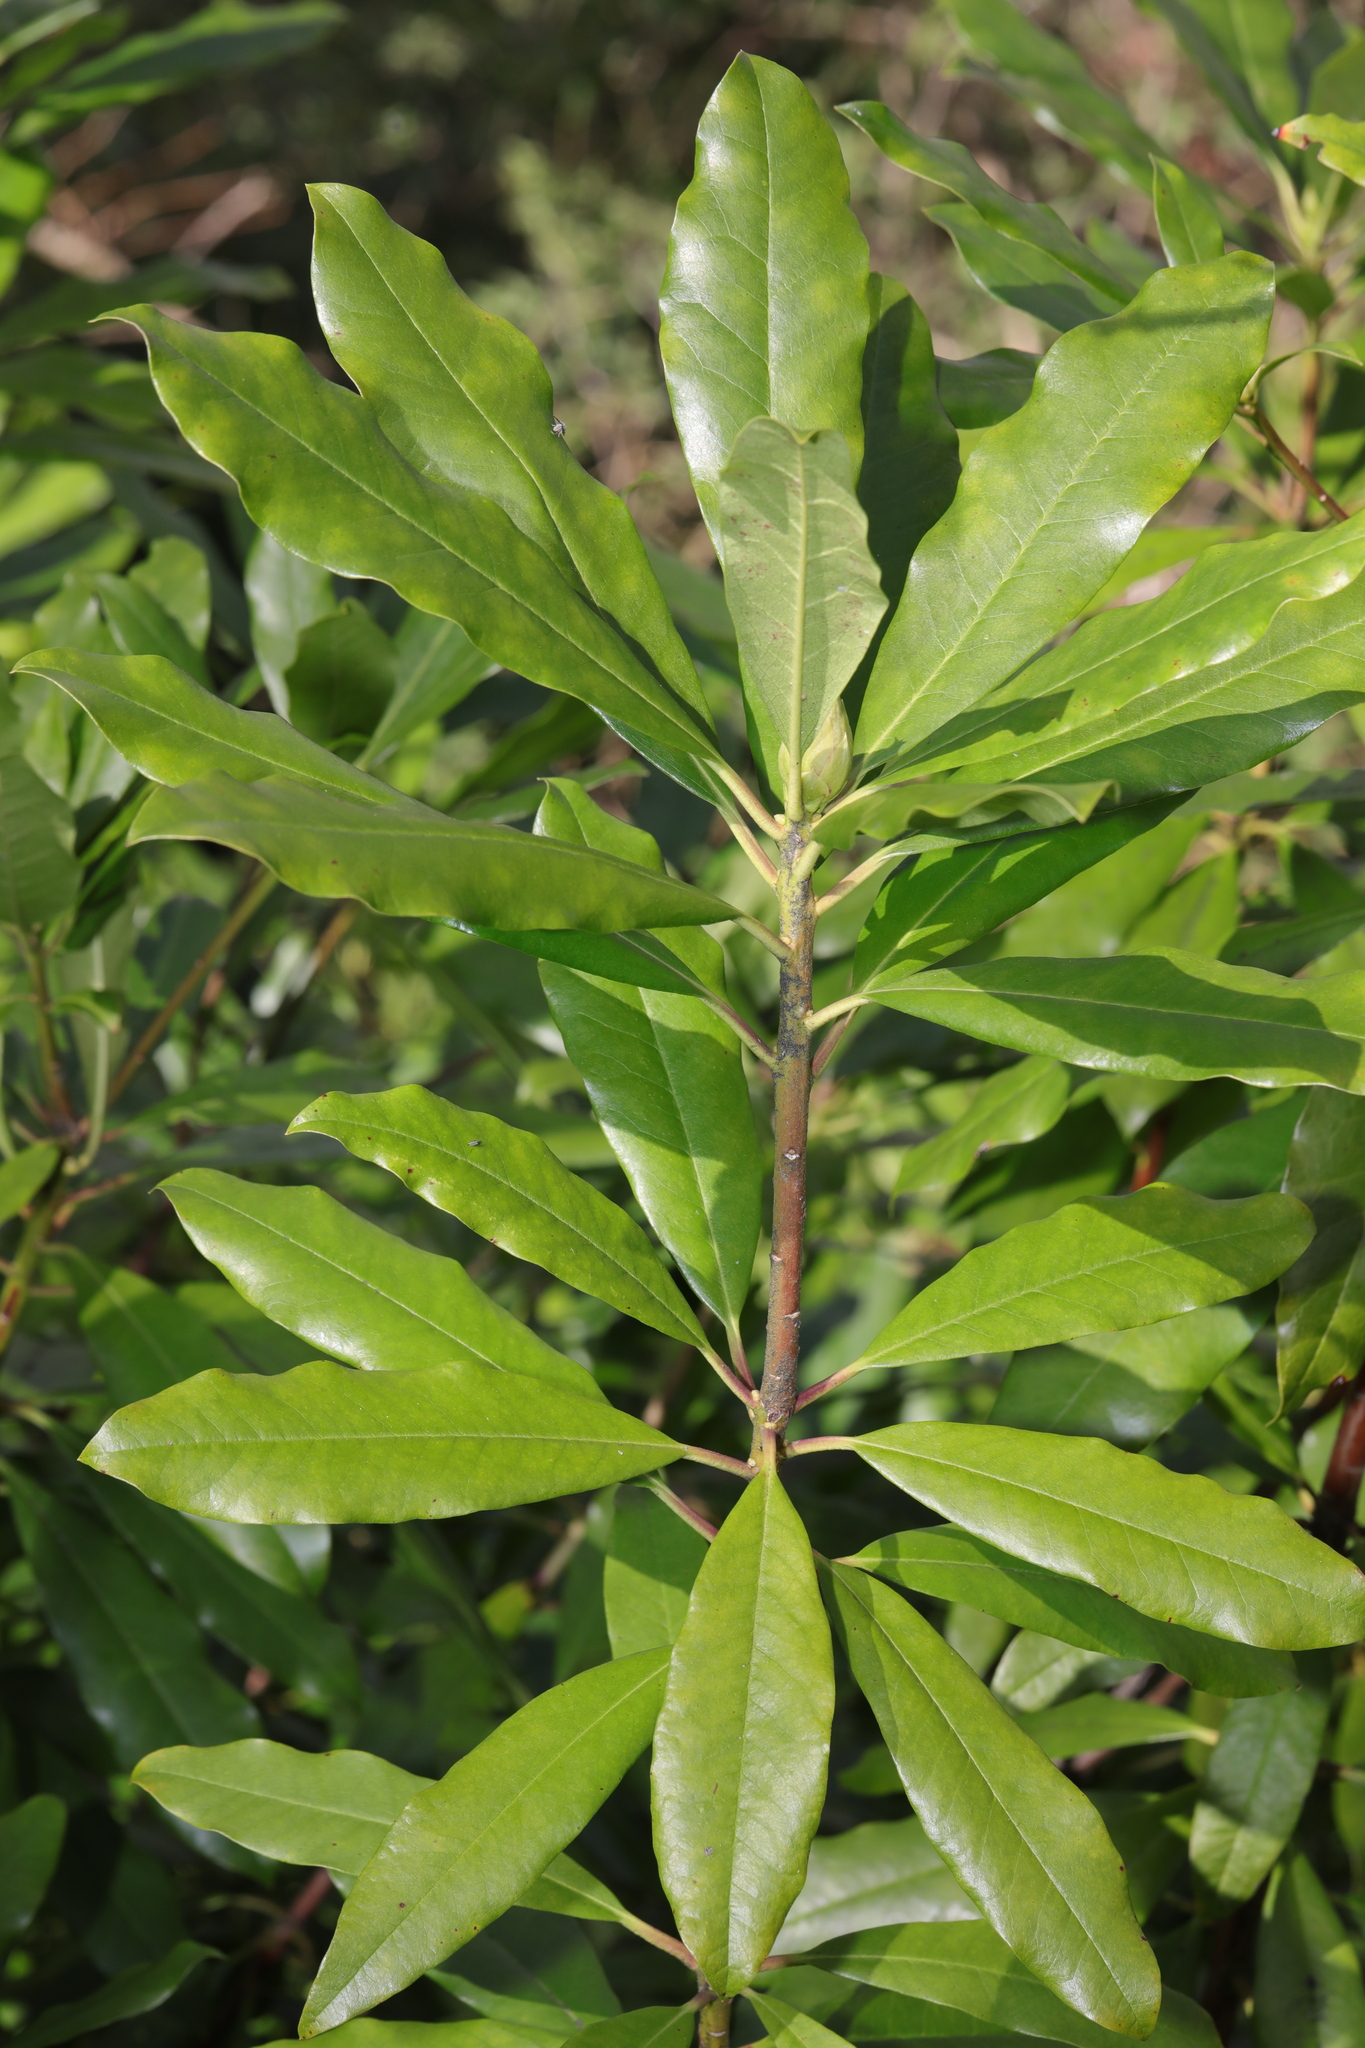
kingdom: Plantae
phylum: Tracheophyta
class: Magnoliopsida
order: Ericales
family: Ericaceae
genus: Rhododendron
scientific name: Rhododendron ponticum
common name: Rhododendron
